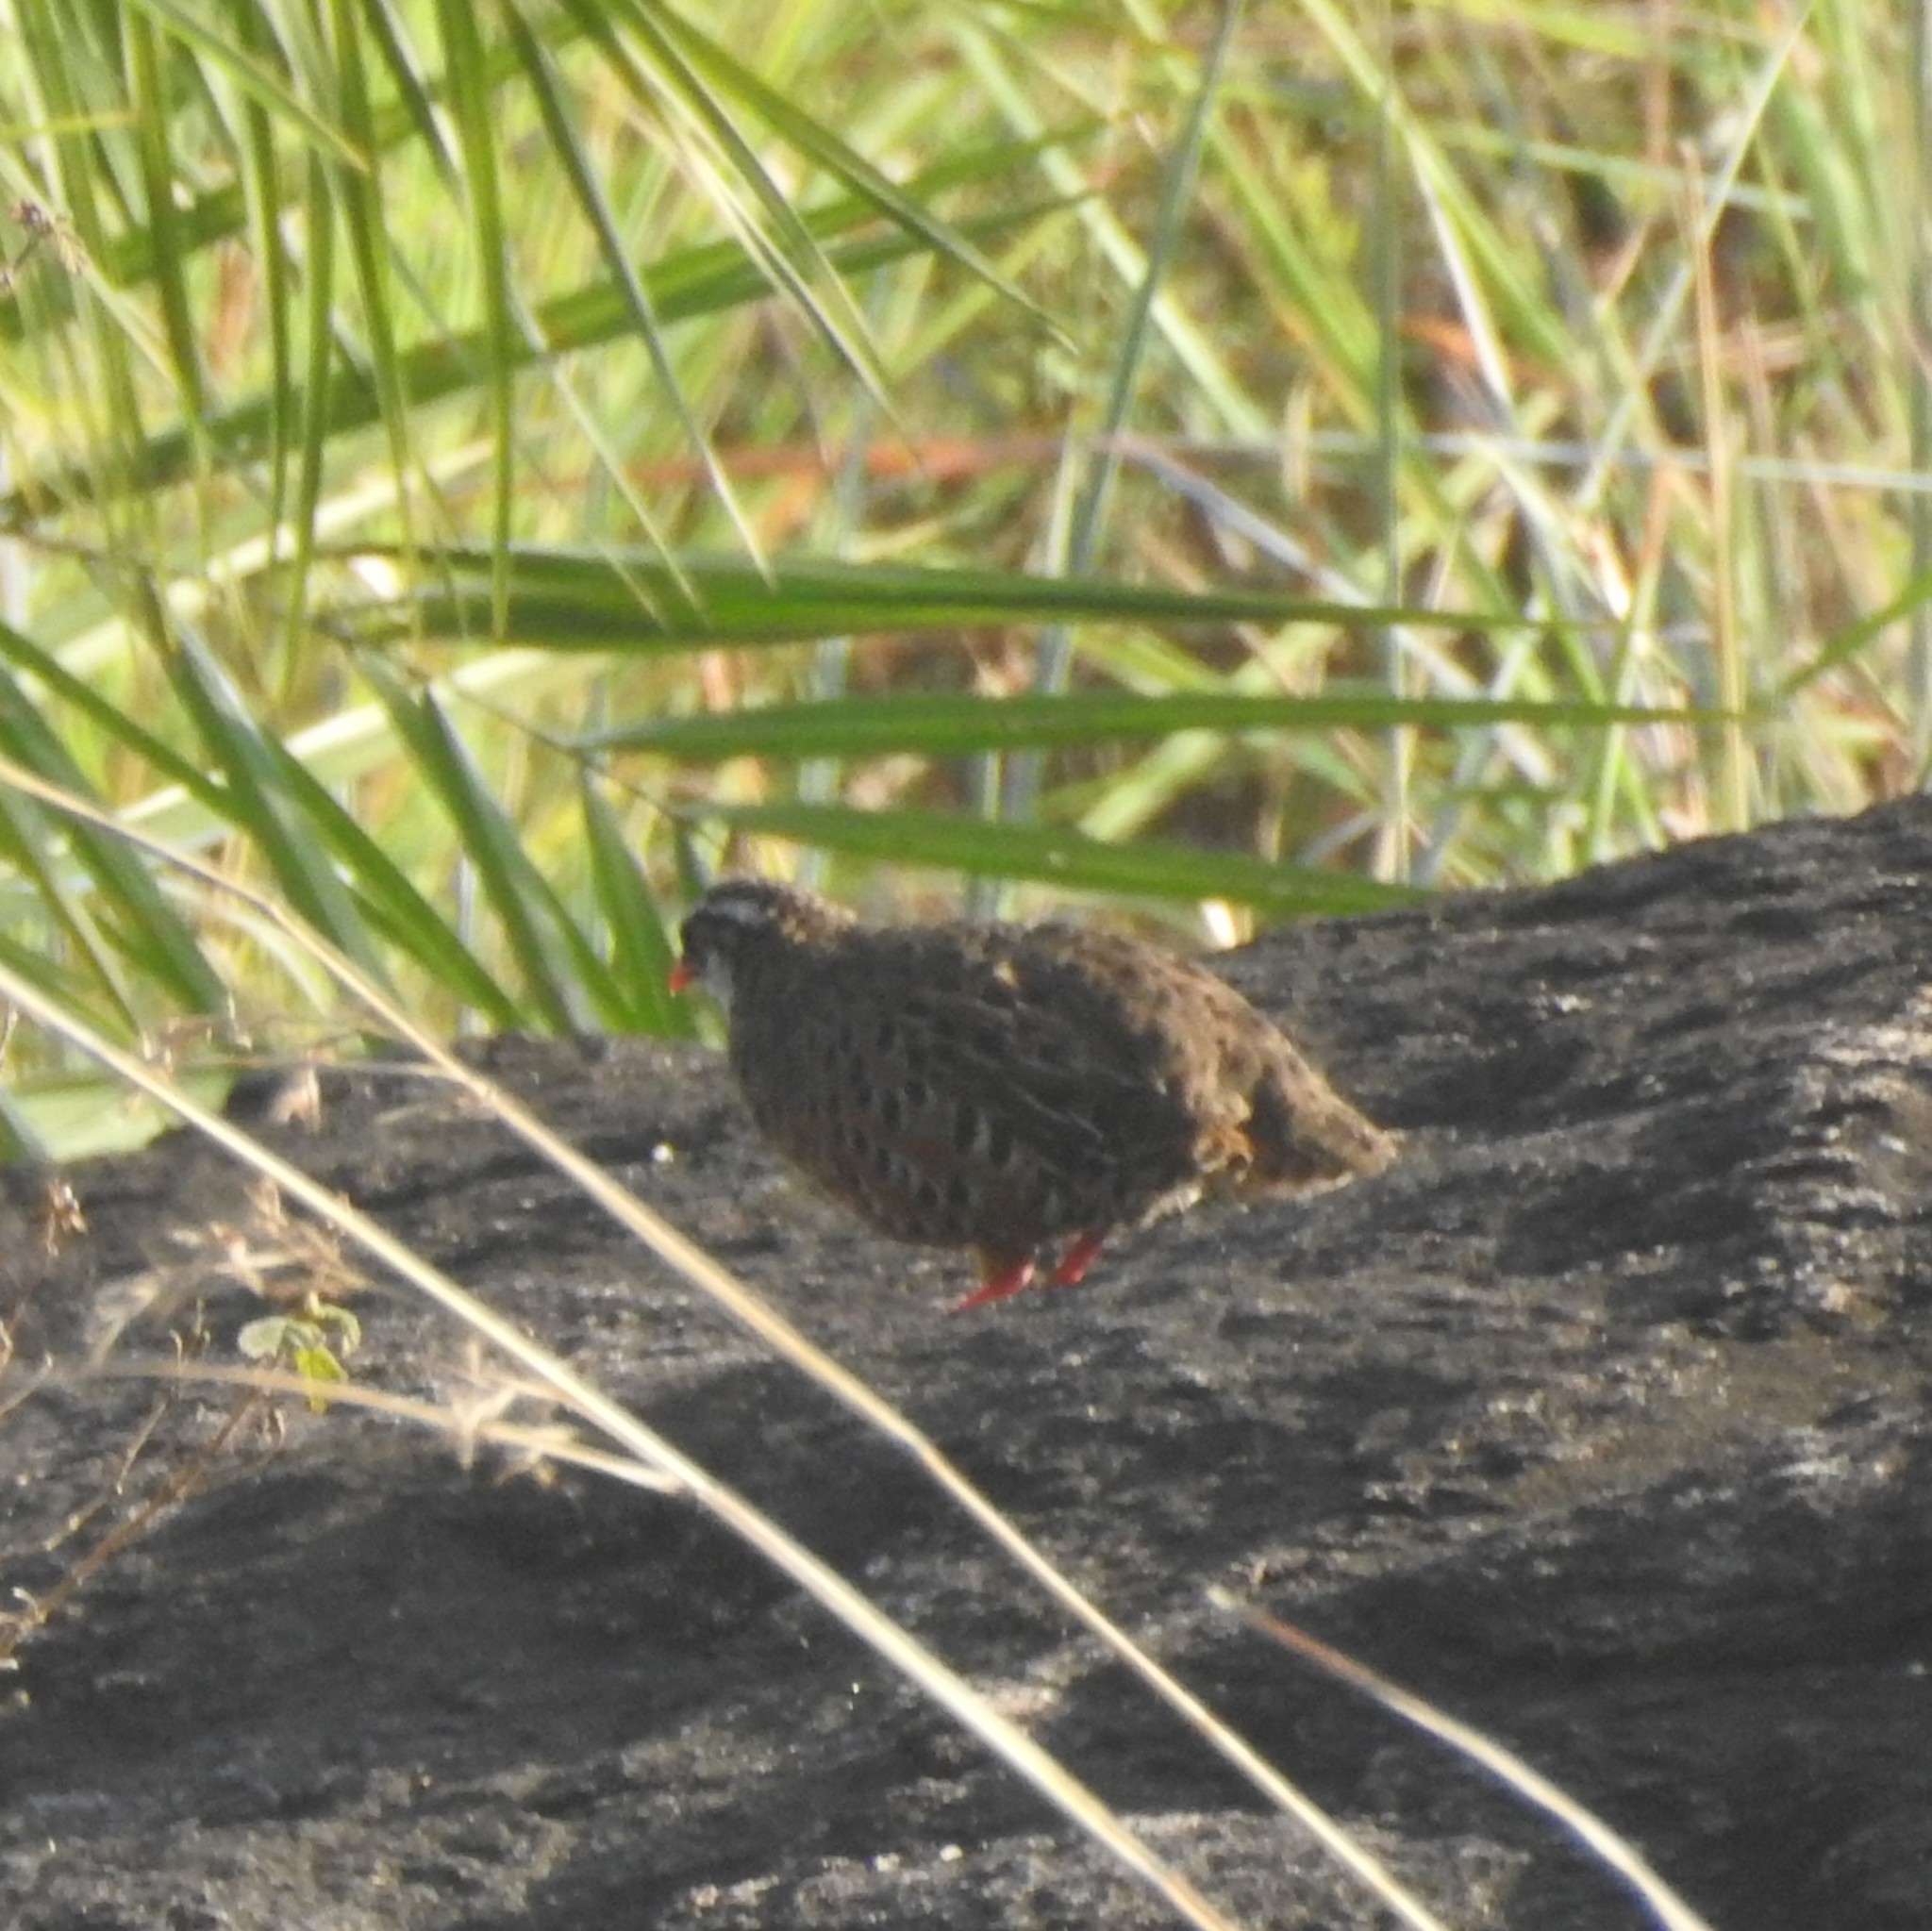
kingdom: Animalia
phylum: Chordata
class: Aves
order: Galliformes
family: Phasianidae
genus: Perdicula
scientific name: Perdicula erythrorhyncha
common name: Painted bush-quail
